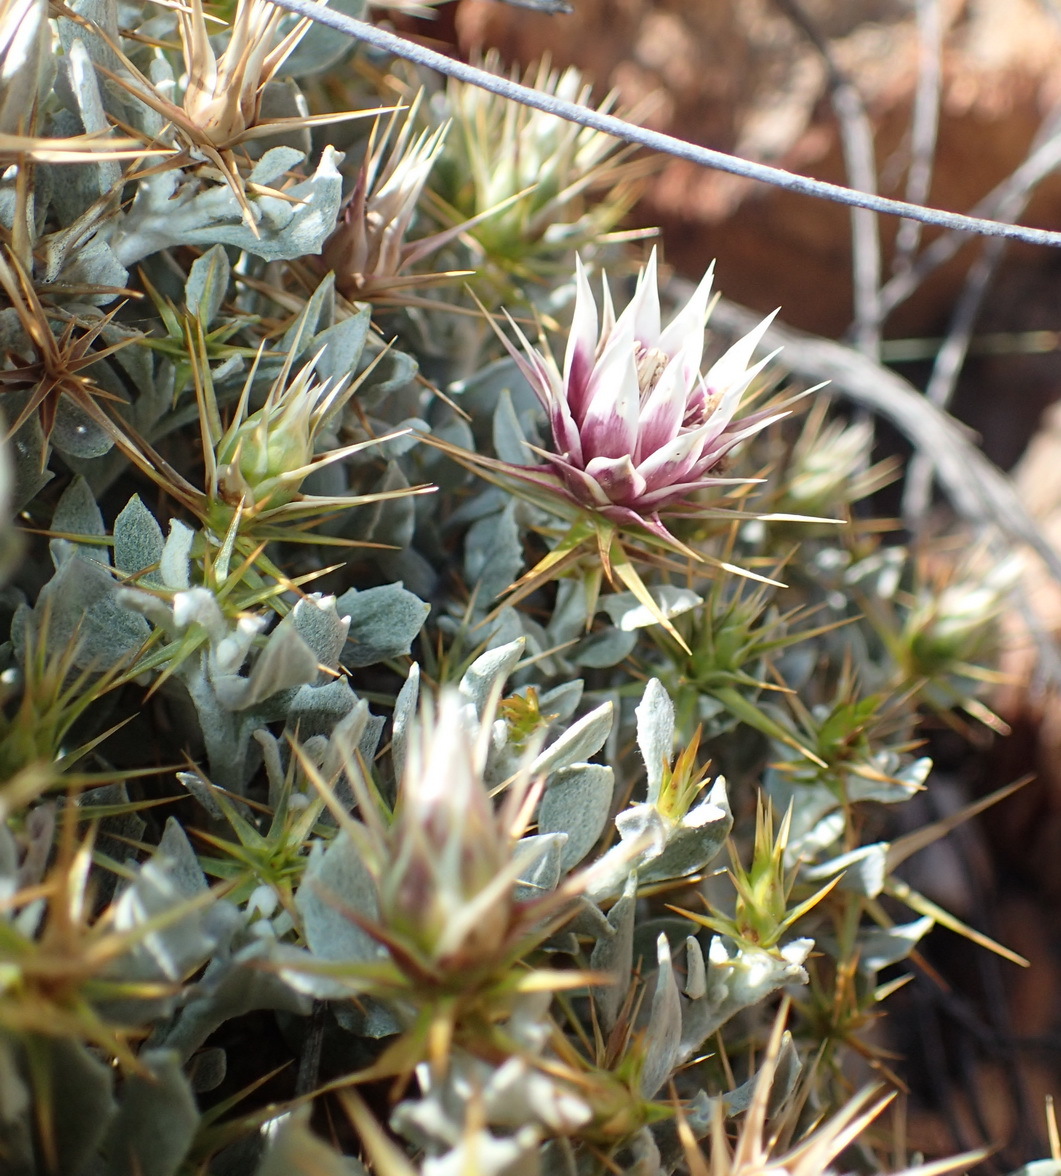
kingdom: Plantae
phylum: Tracheophyta
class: Magnoliopsida
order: Asterales
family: Asteraceae
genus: Macledium
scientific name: Macledium spinosum
